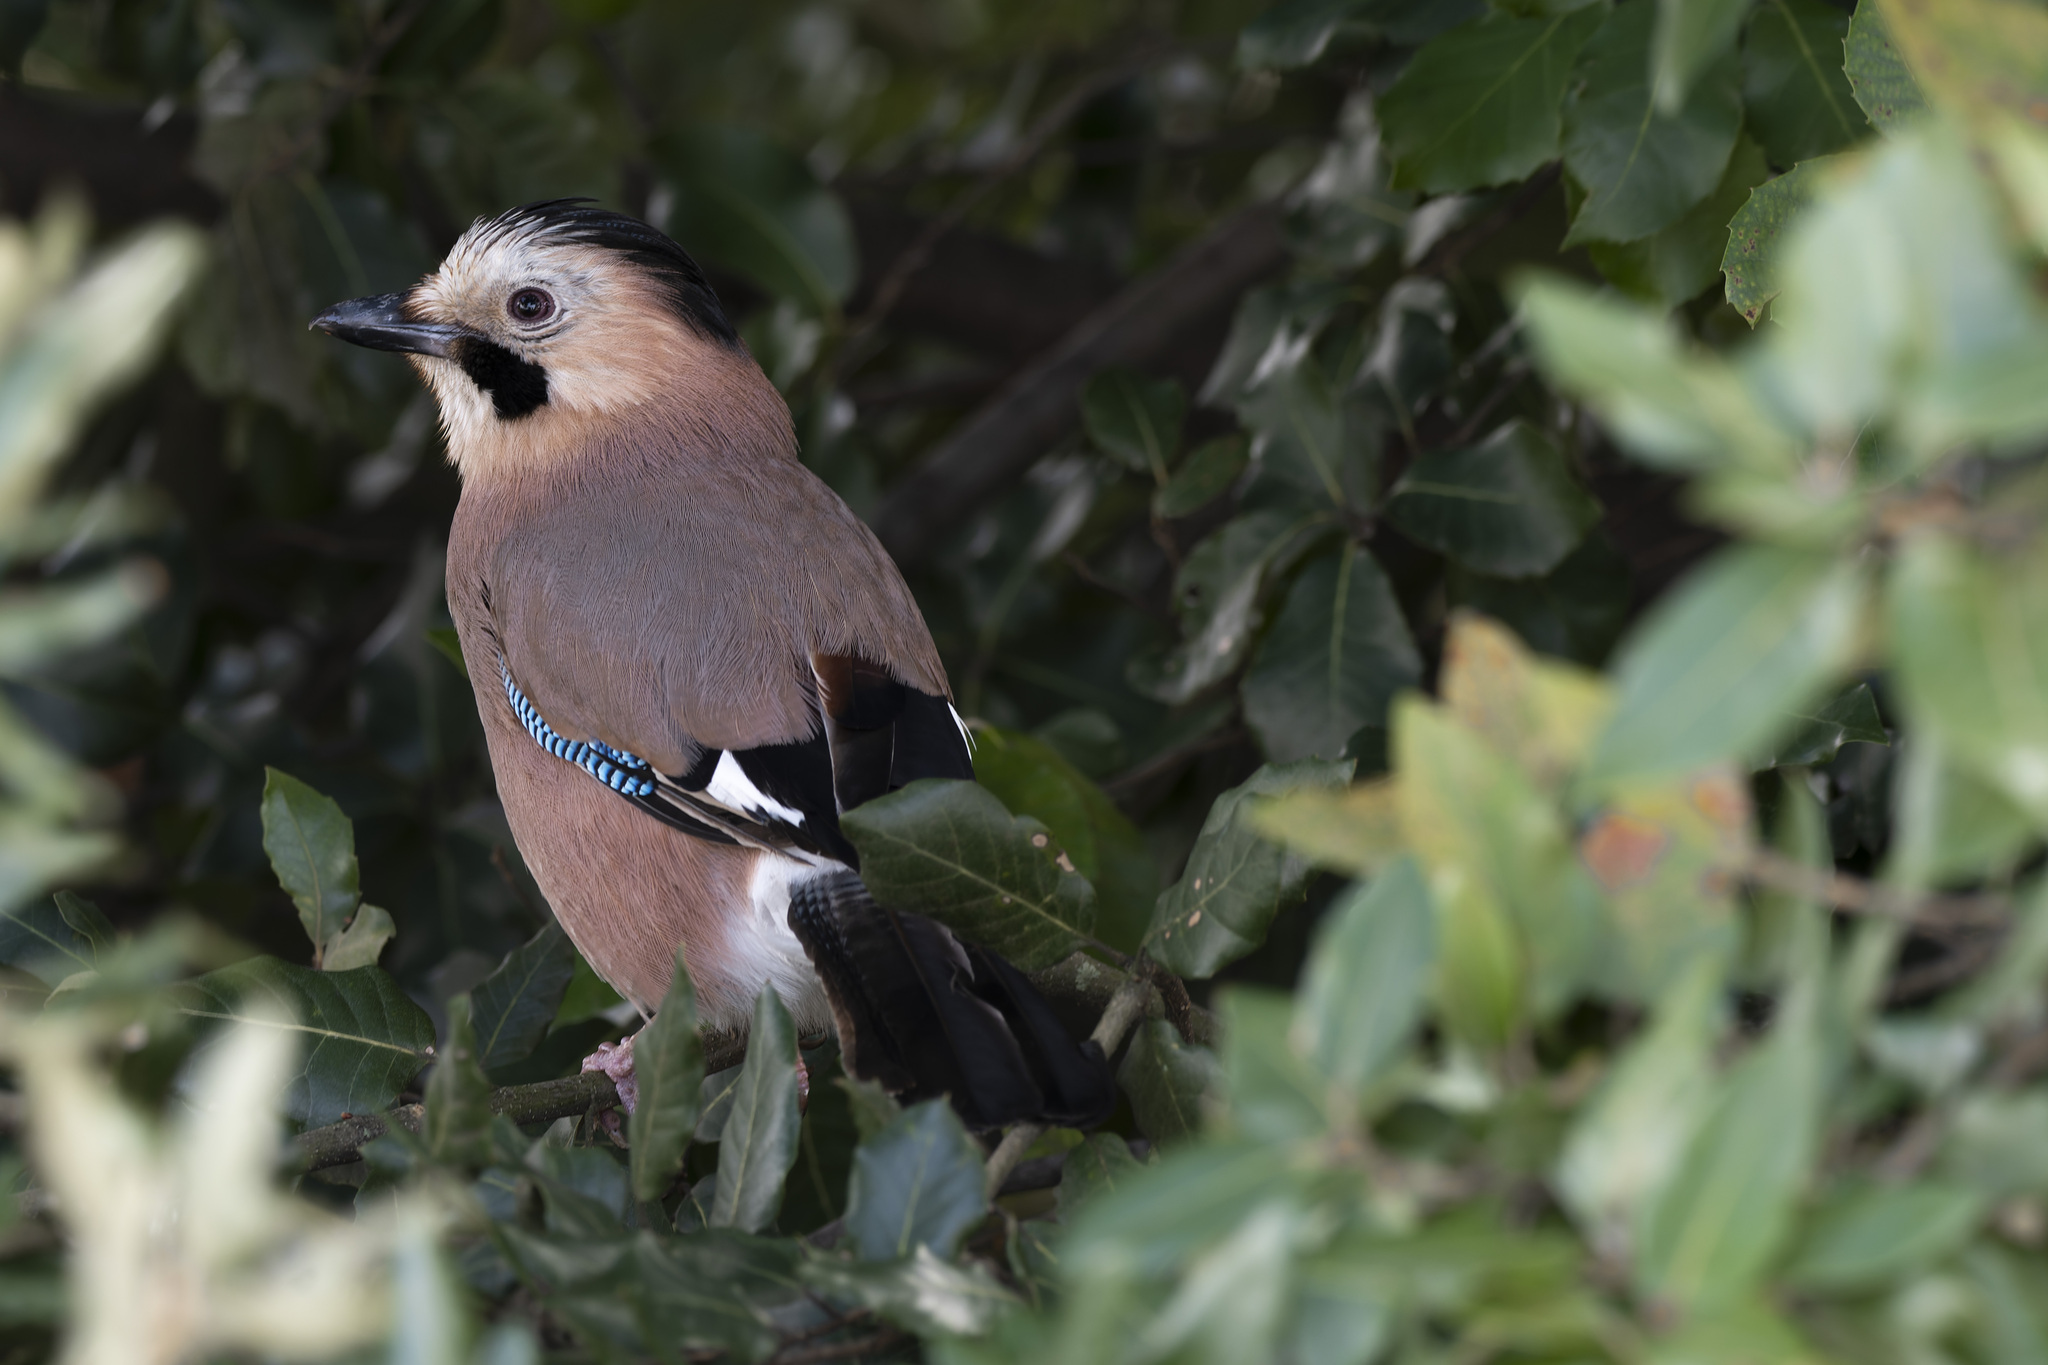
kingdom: Animalia
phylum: Chordata
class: Aves
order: Passeriformes
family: Corvidae
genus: Garrulus
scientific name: Garrulus glandarius
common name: Eurasian jay
